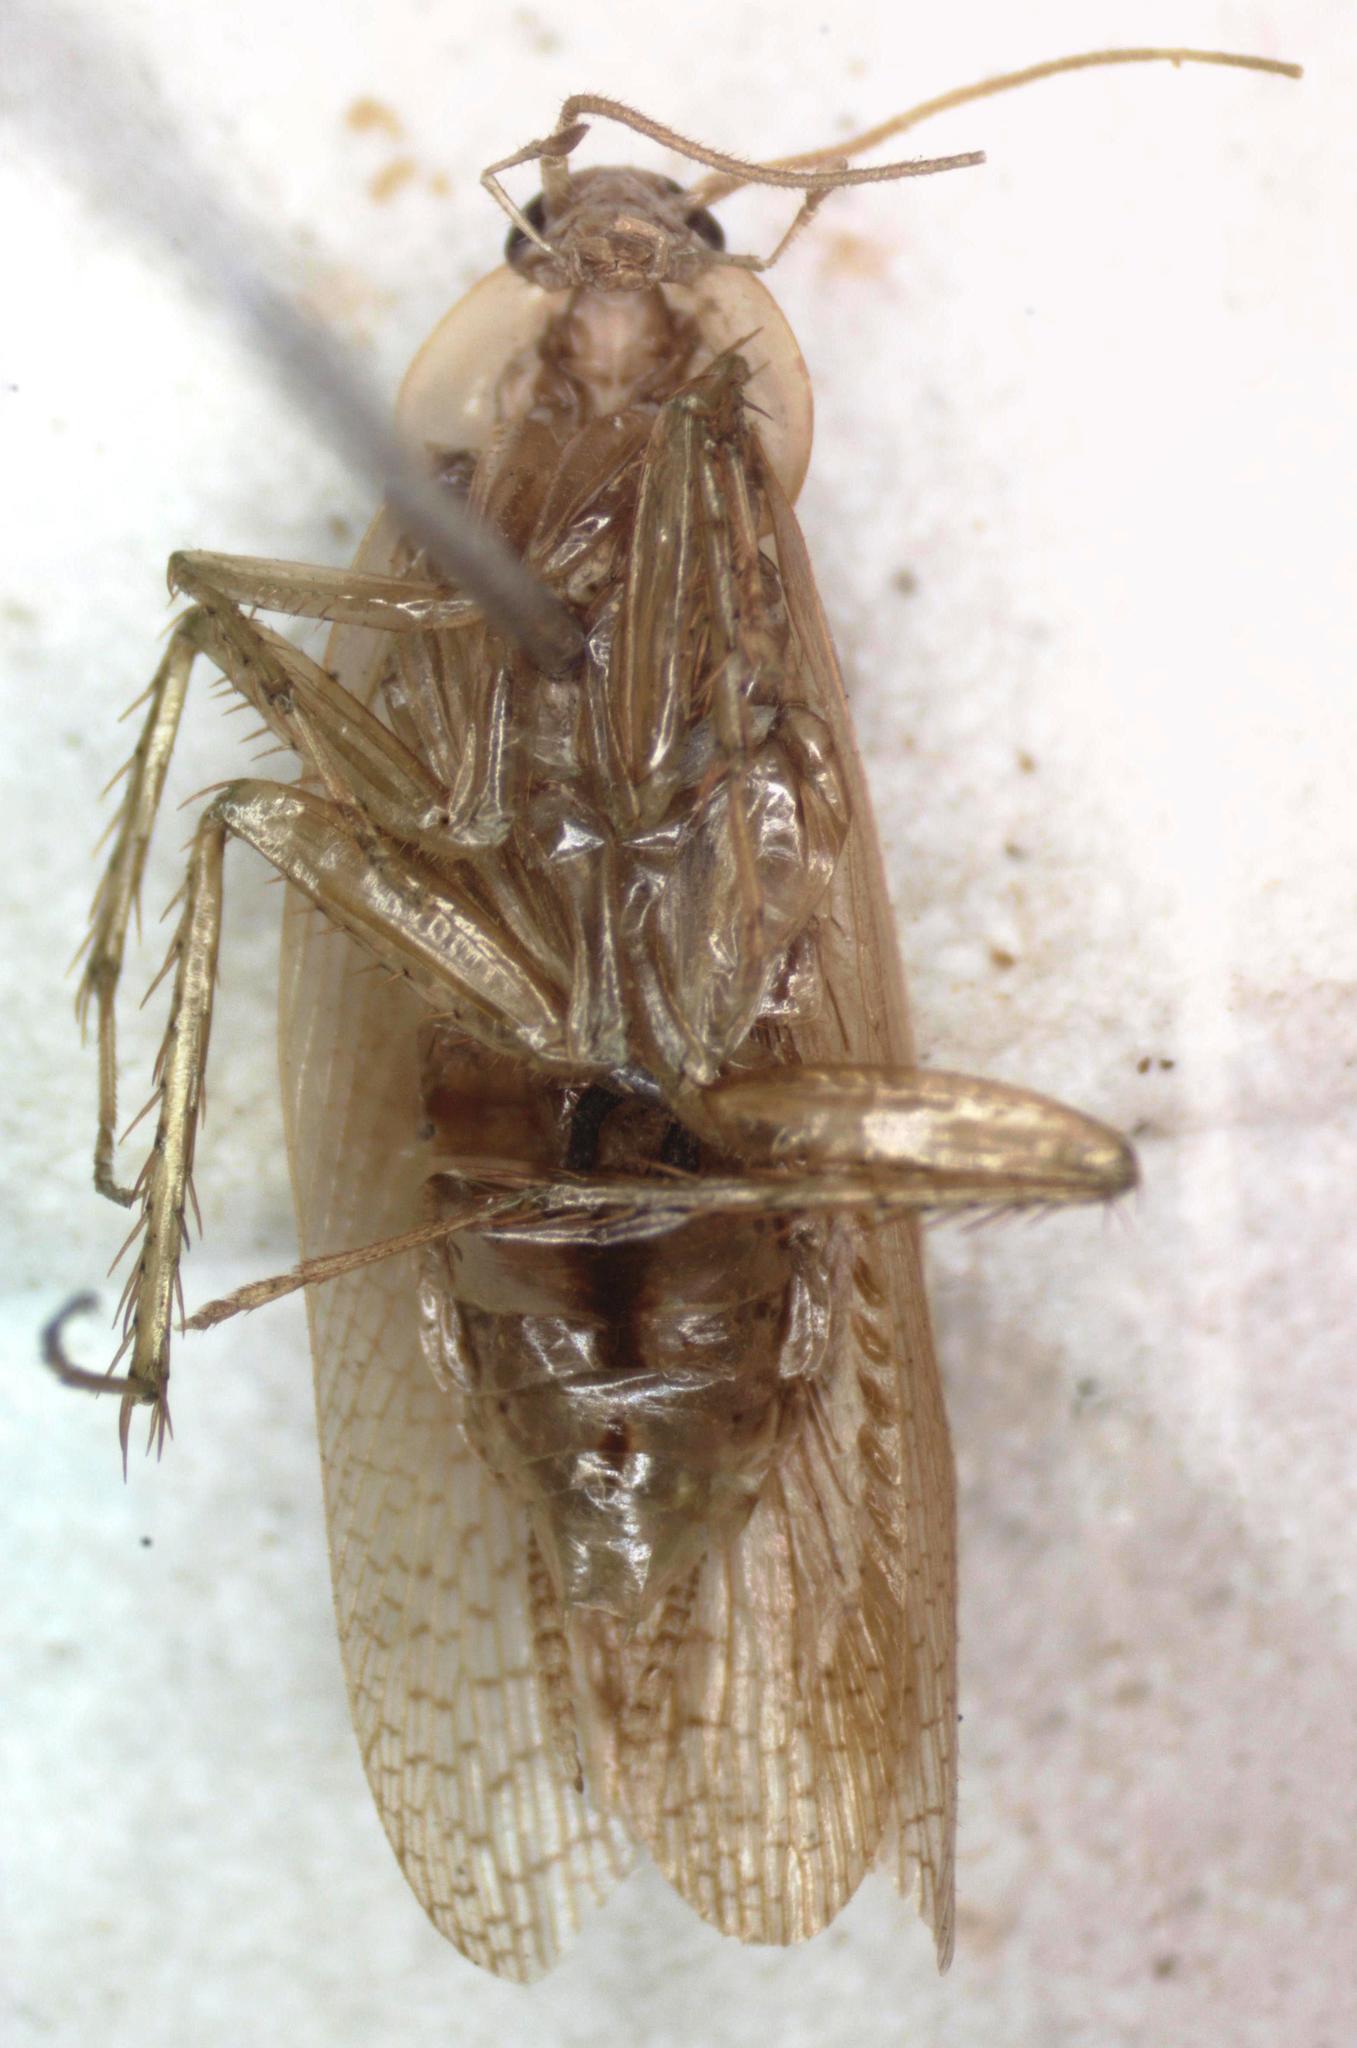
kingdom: Animalia
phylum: Arthropoda
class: Insecta
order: Blattodea
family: Ectobiidae
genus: Imblattella
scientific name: Imblattella chagrensis
